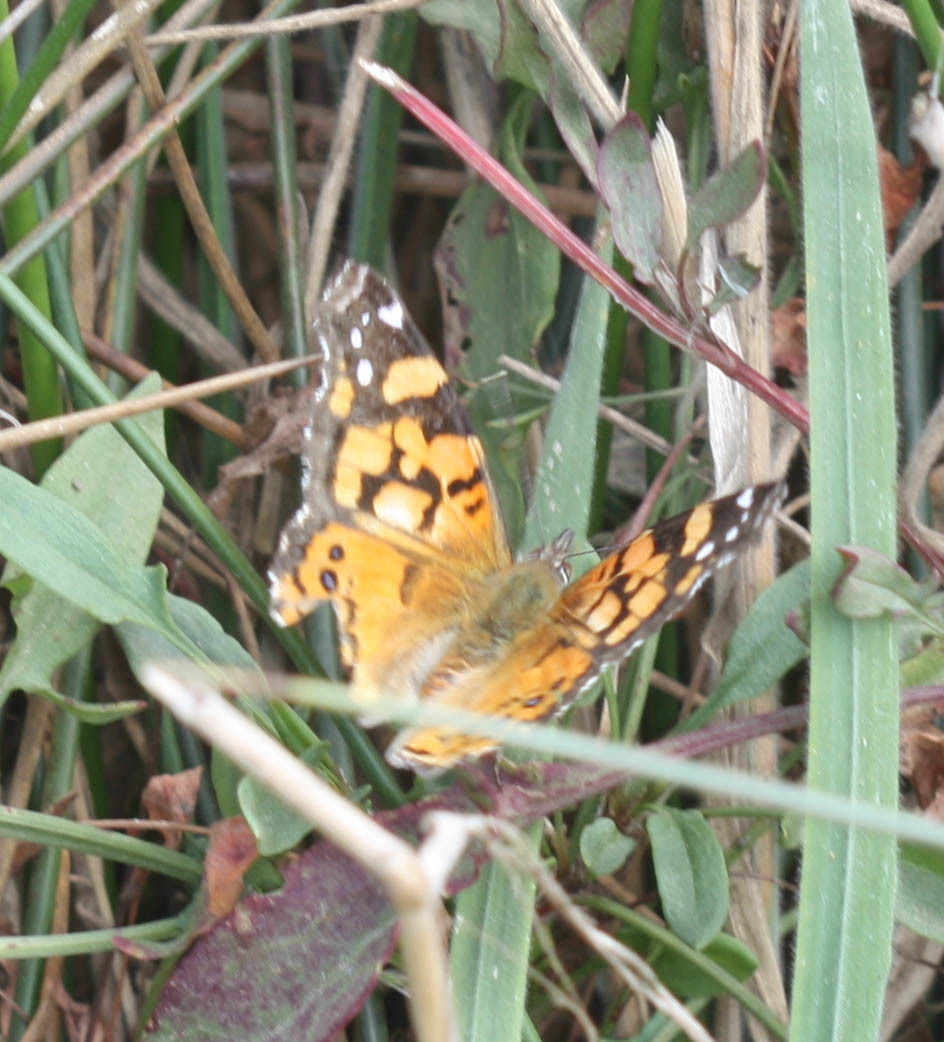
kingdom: Animalia
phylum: Arthropoda
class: Insecta
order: Lepidoptera
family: Nymphalidae
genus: Vanessa
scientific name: Vanessa annabella
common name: West coast lady
